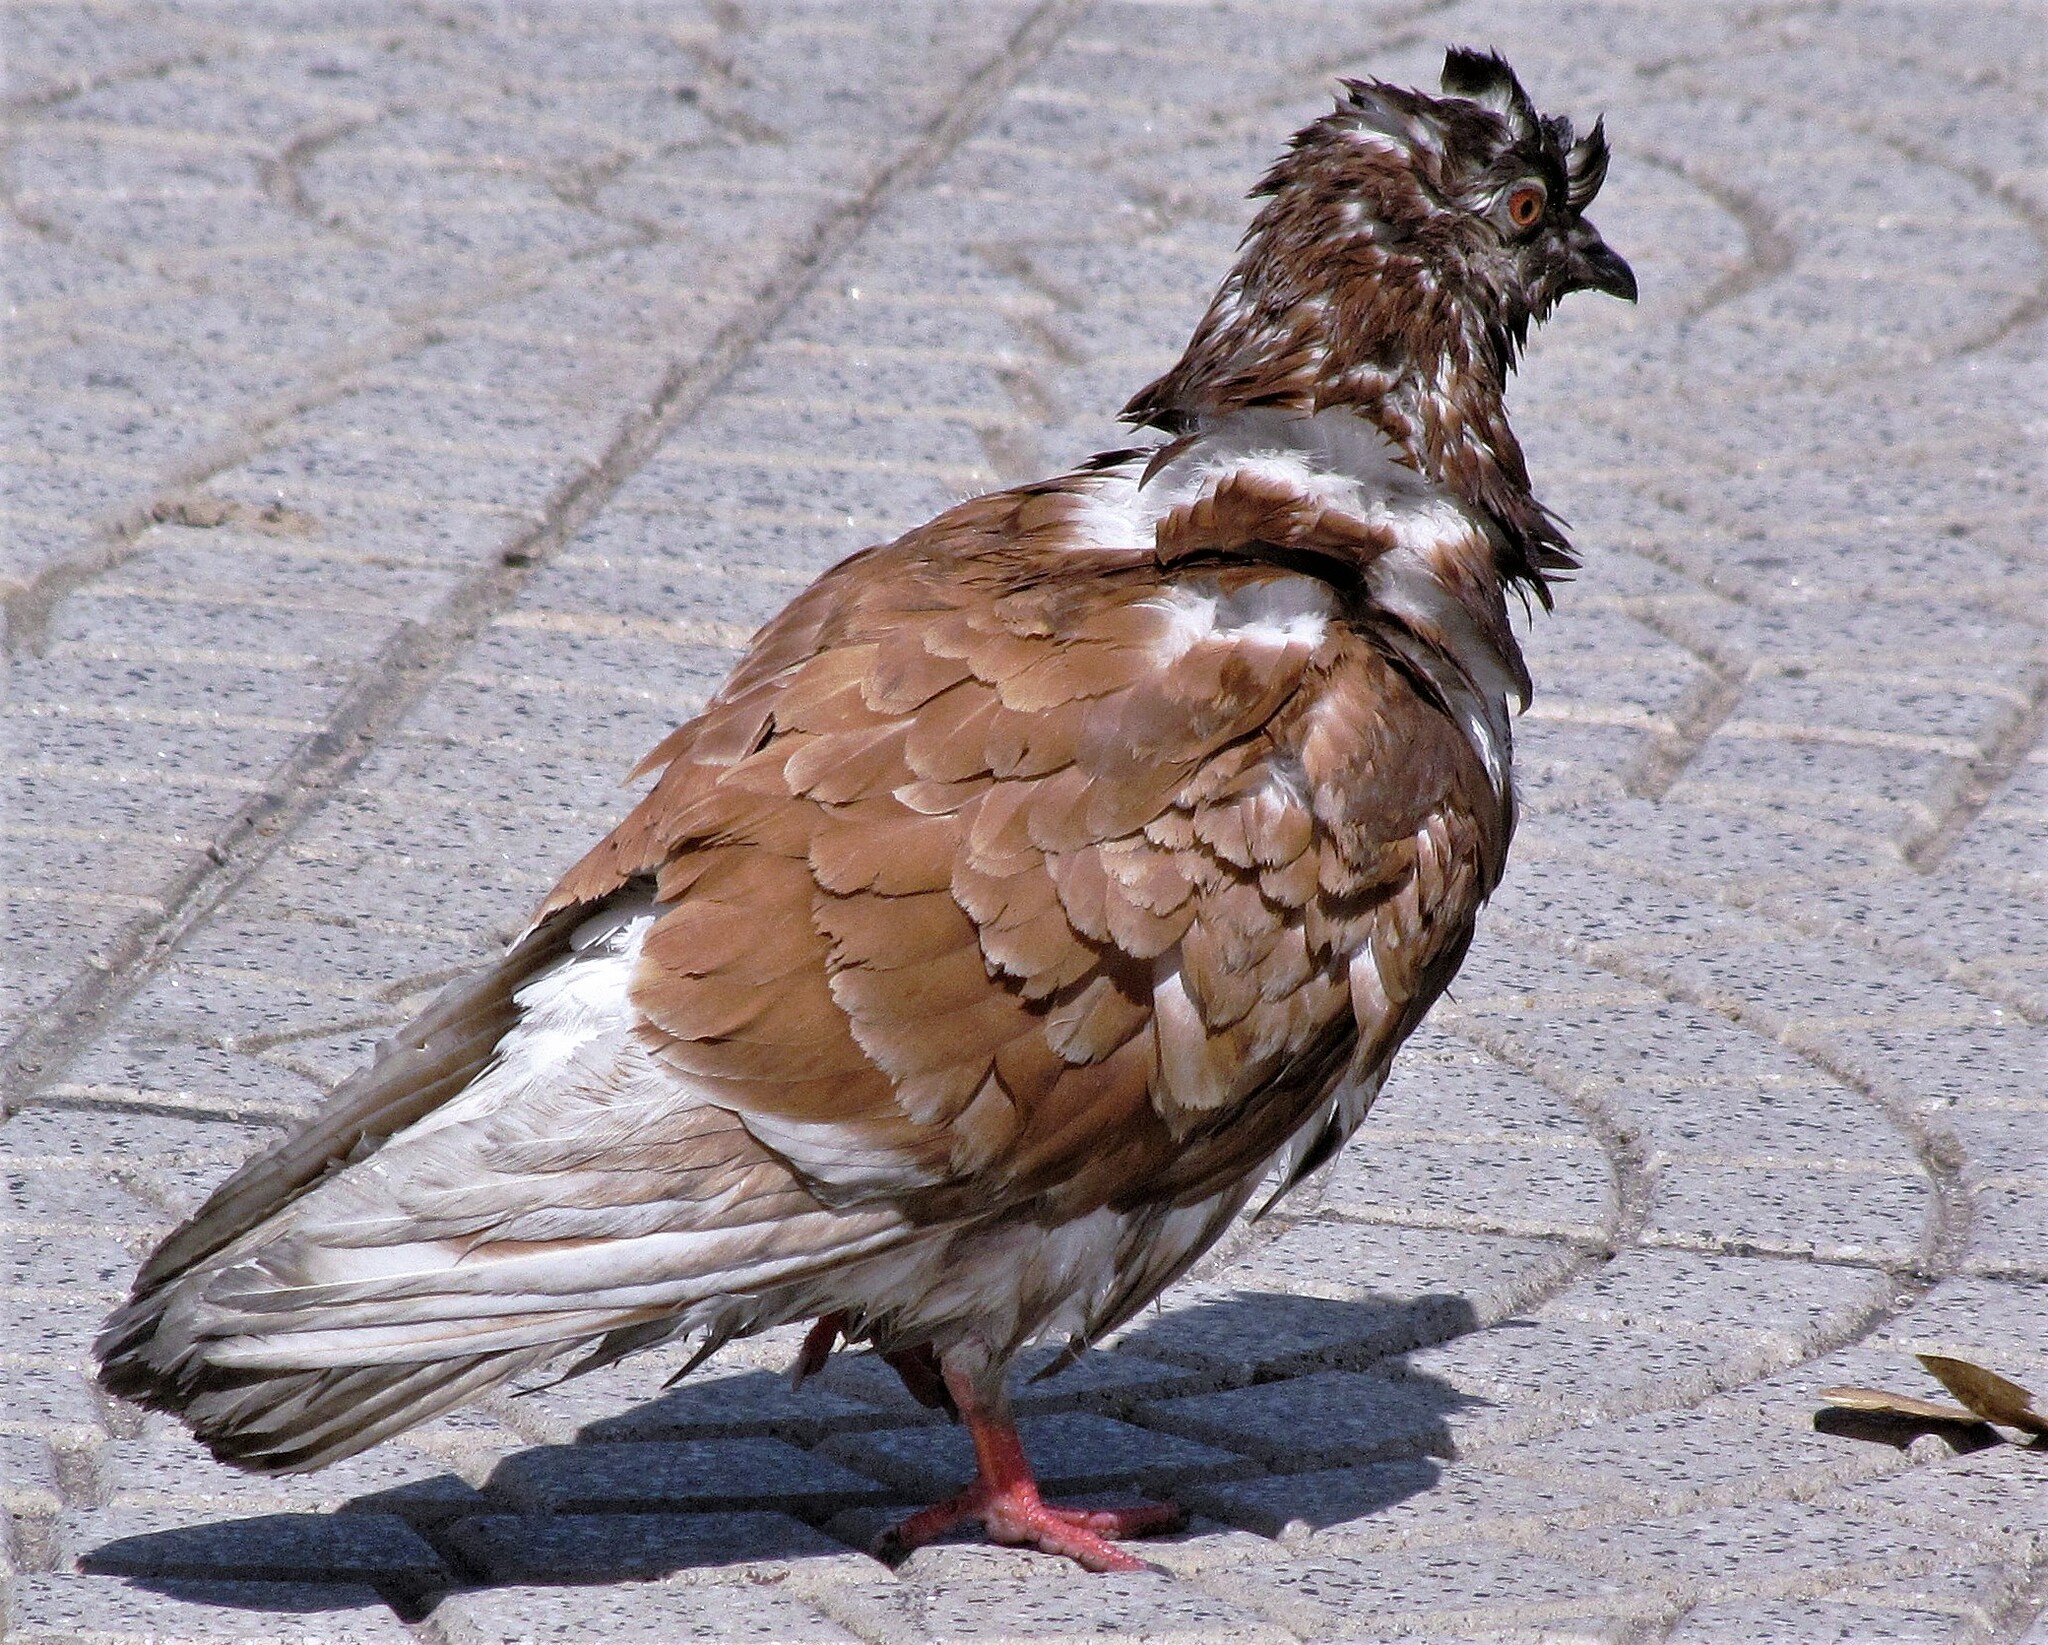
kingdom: Animalia
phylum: Chordata
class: Aves
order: Columbiformes
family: Columbidae
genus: Columba
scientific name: Columba livia
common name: Rock pigeon
